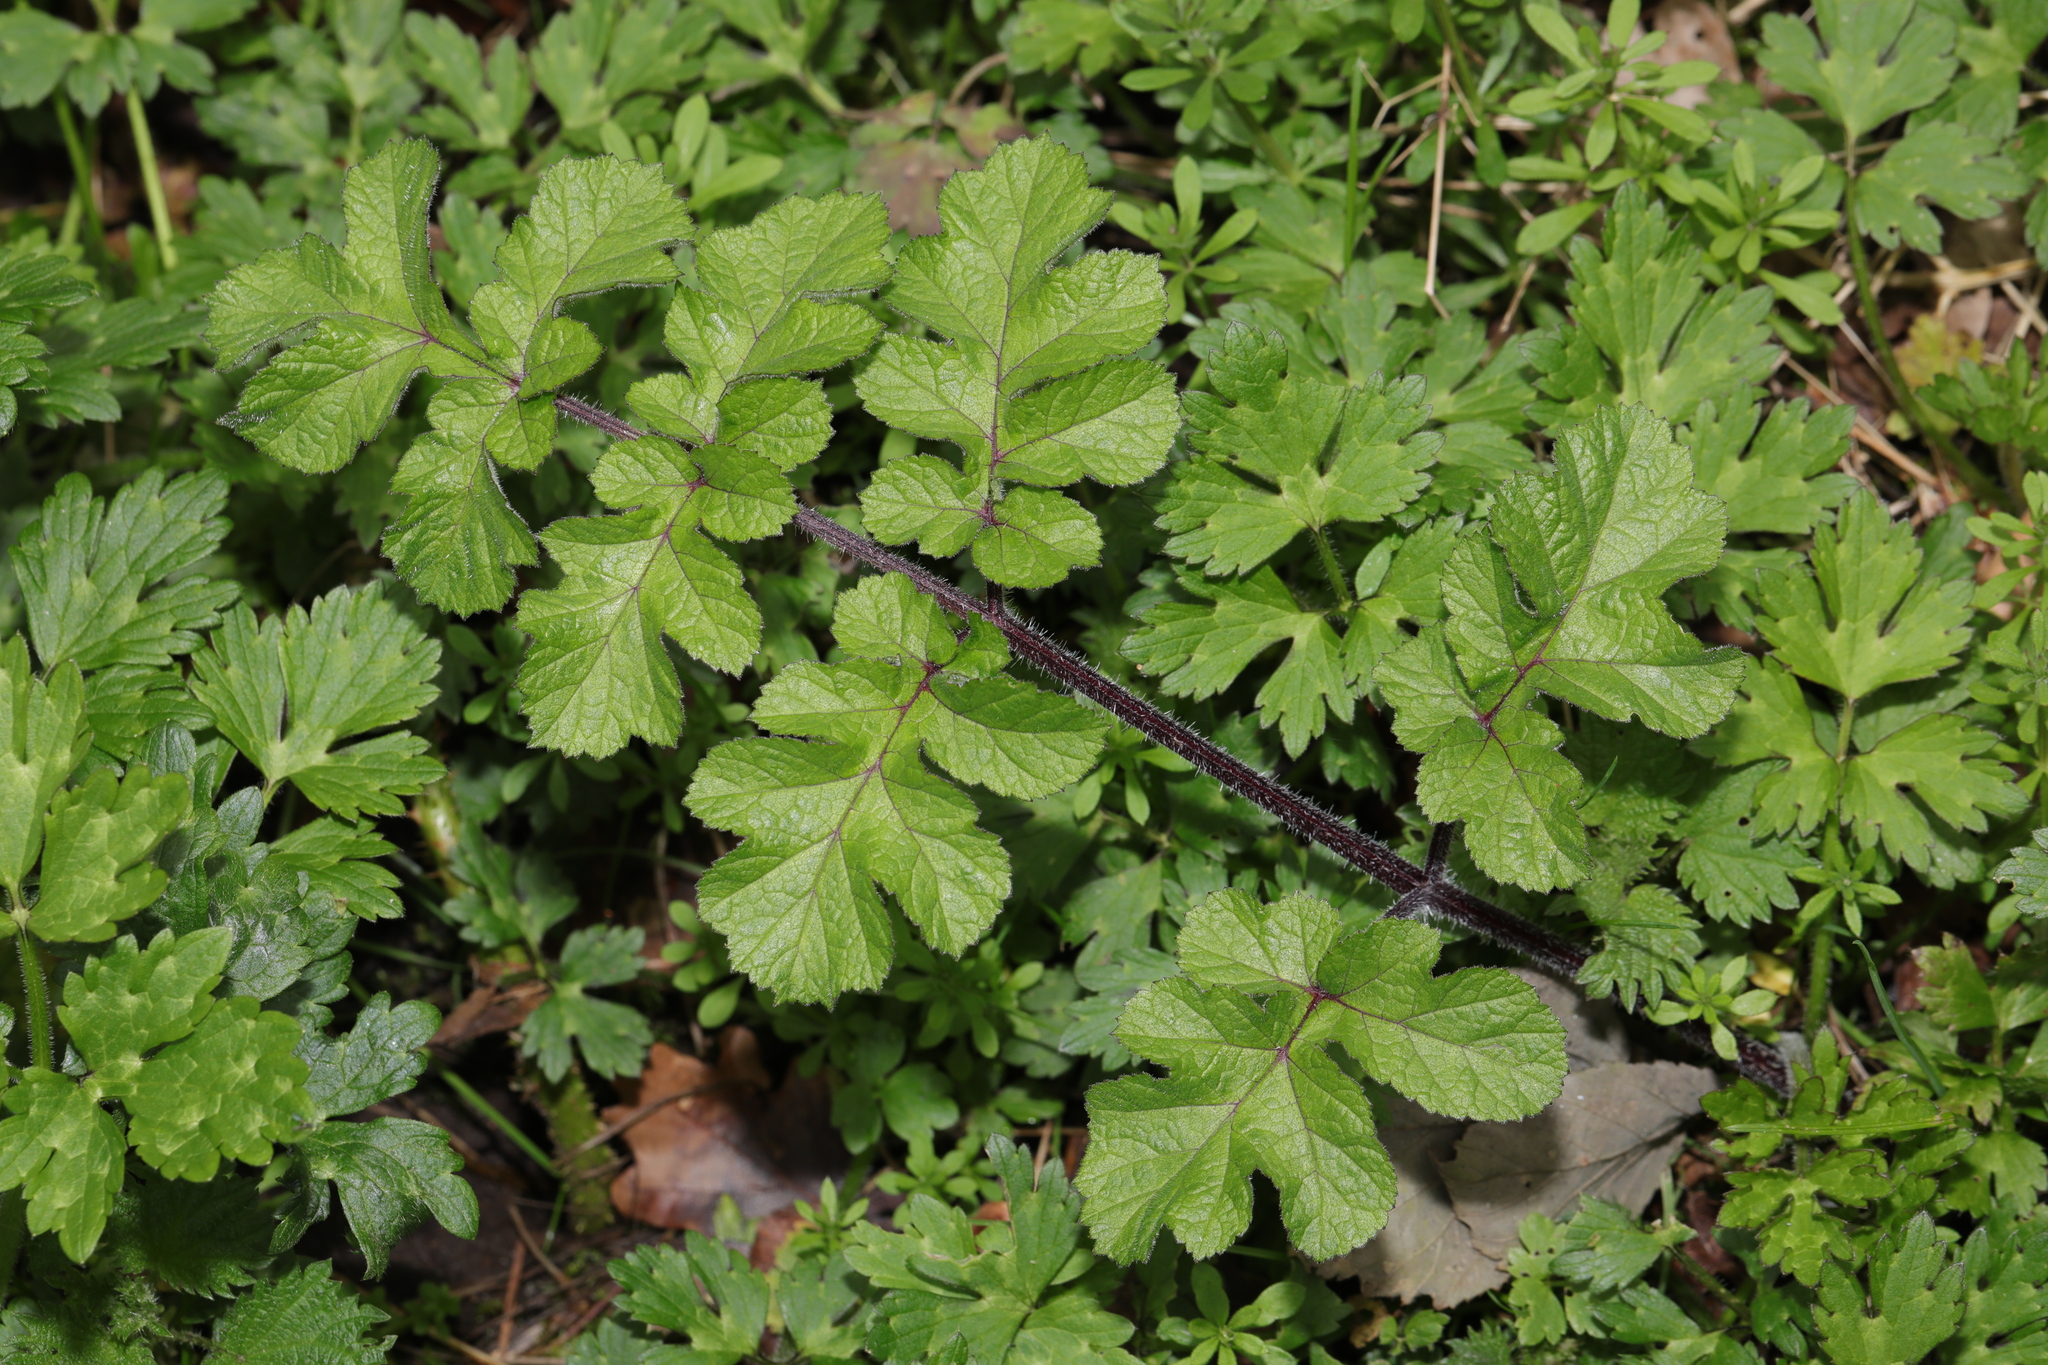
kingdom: Plantae
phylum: Tracheophyta
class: Magnoliopsida
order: Apiales
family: Apiaceae
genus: Heracleum
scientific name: Heracleum sphondylium
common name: Hogweed
